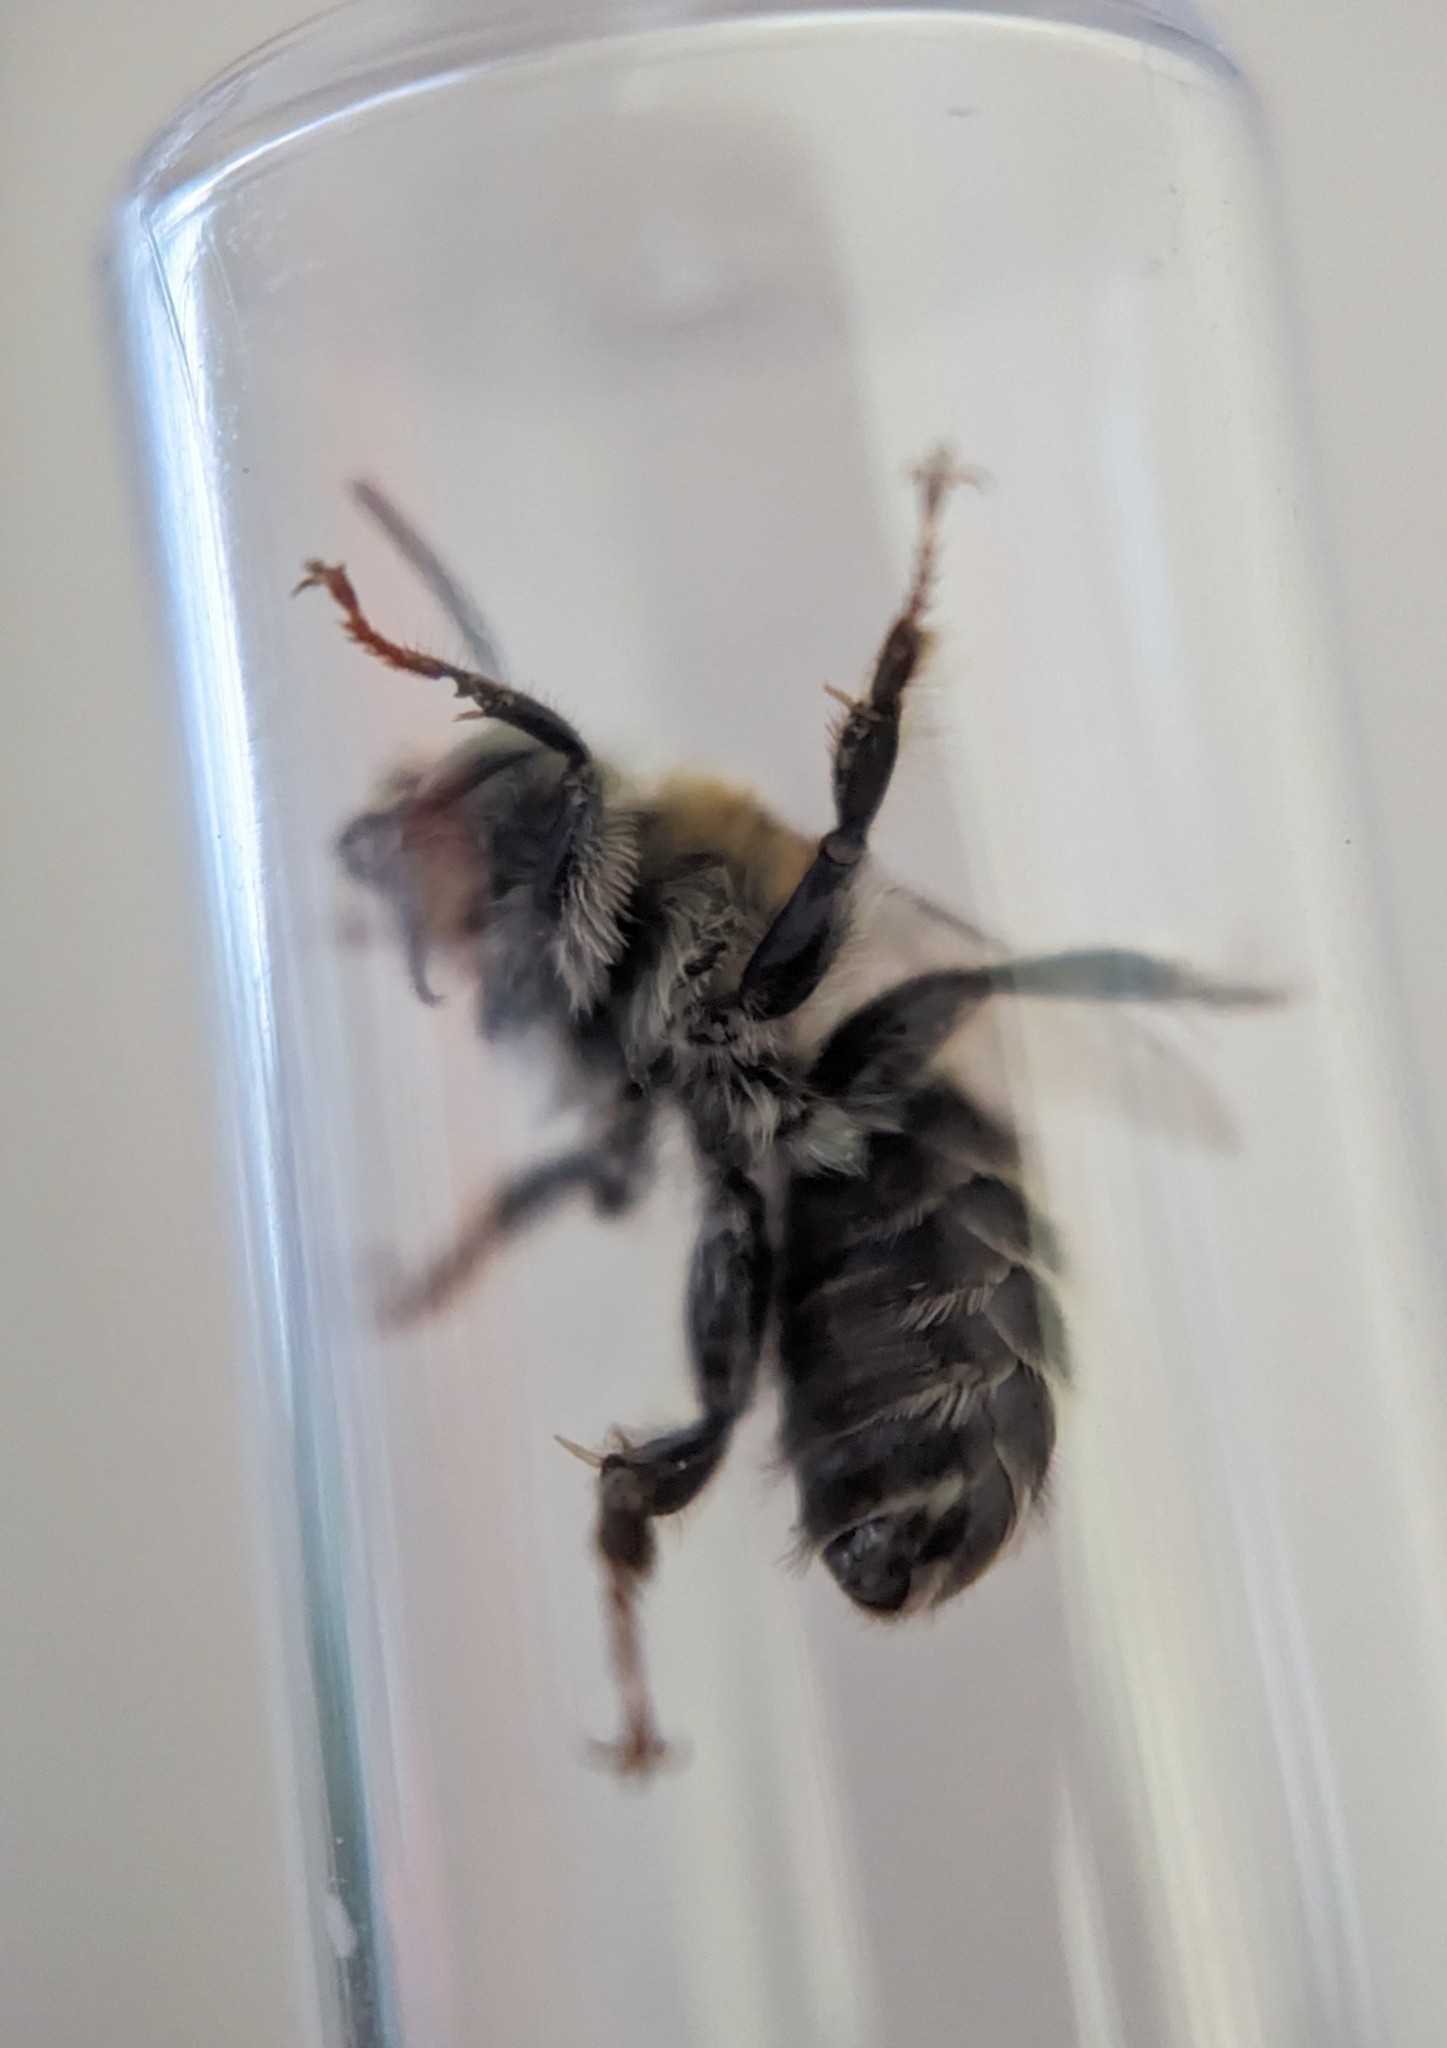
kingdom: Animalia
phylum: Arthropoda
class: Insecta
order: Hymenoptera
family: Apidae
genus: Anthophora
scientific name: Anthophora quadrimaculata
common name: Four-banded flower bee
